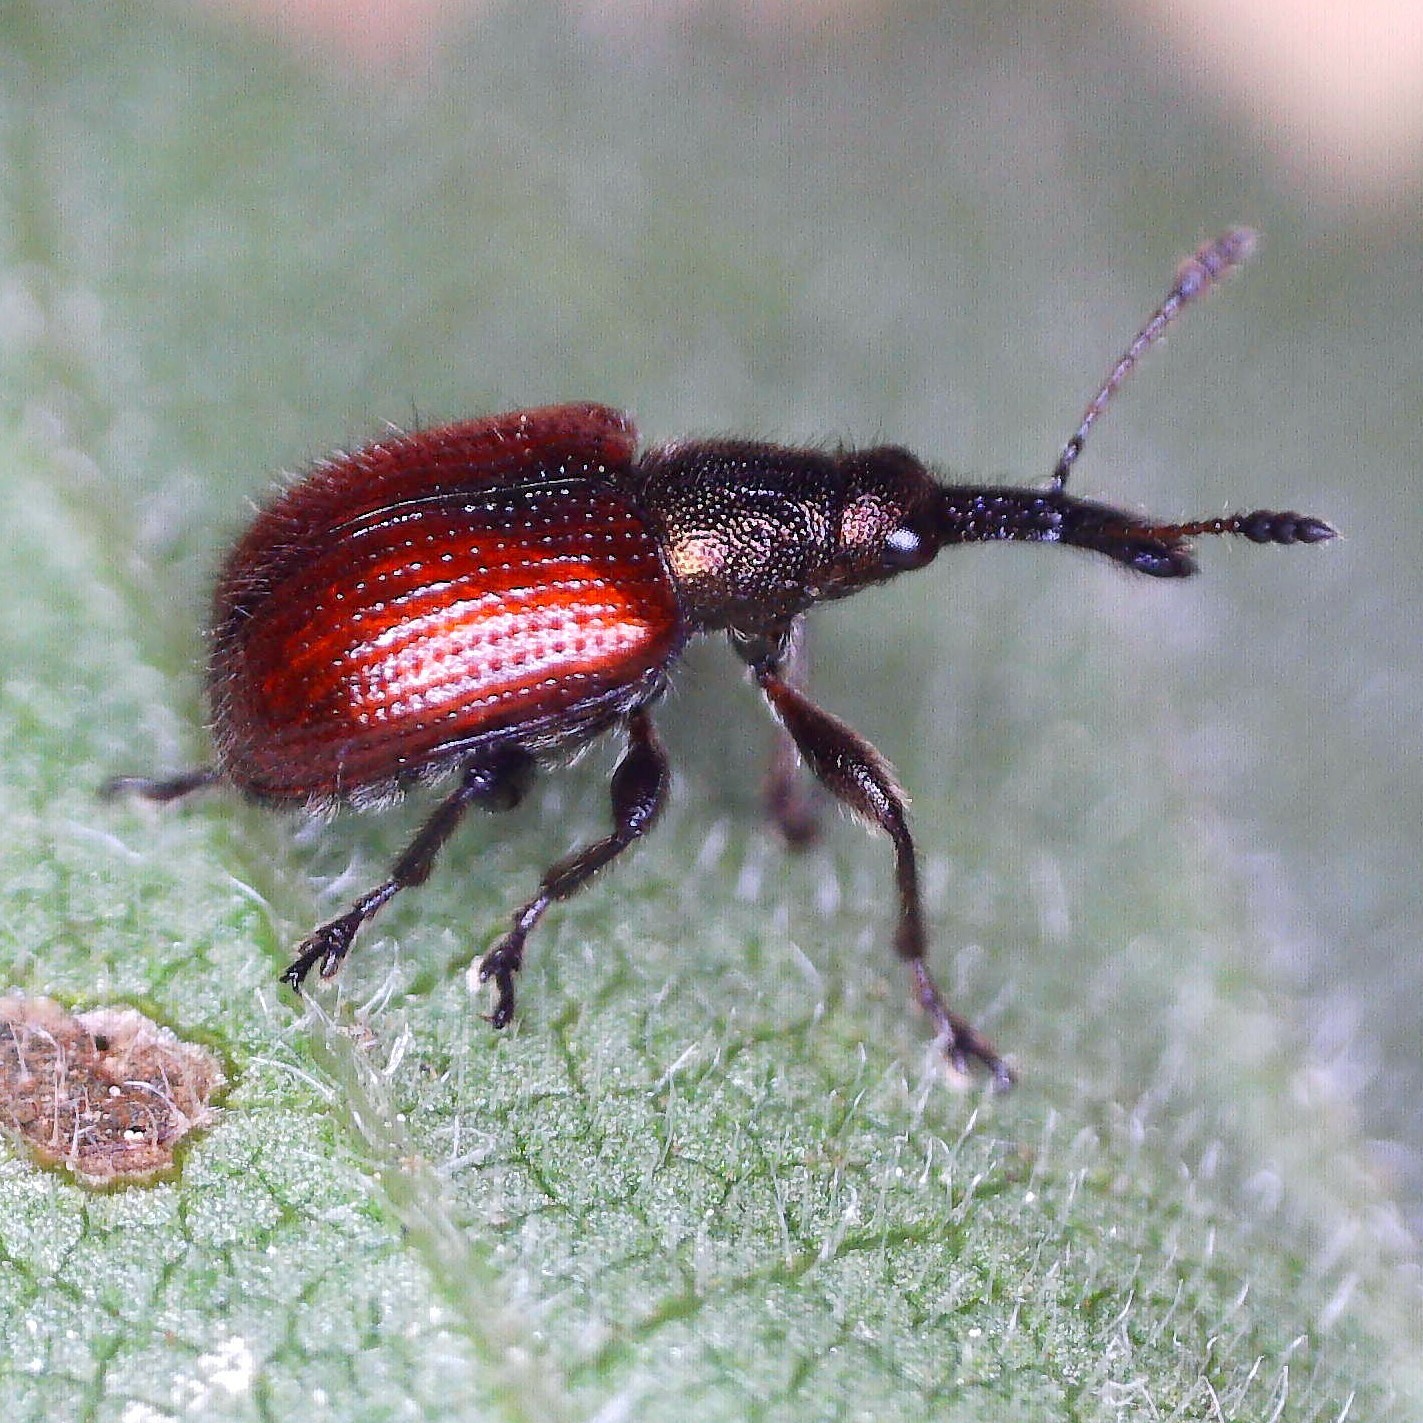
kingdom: Animalia
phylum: Arthropoda
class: Insecta
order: Coleoptera
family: Rhynchitidae
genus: Tatianaerhynchites
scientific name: Tatianaerhynchites aequatus
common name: Apple fruit rhynchites
